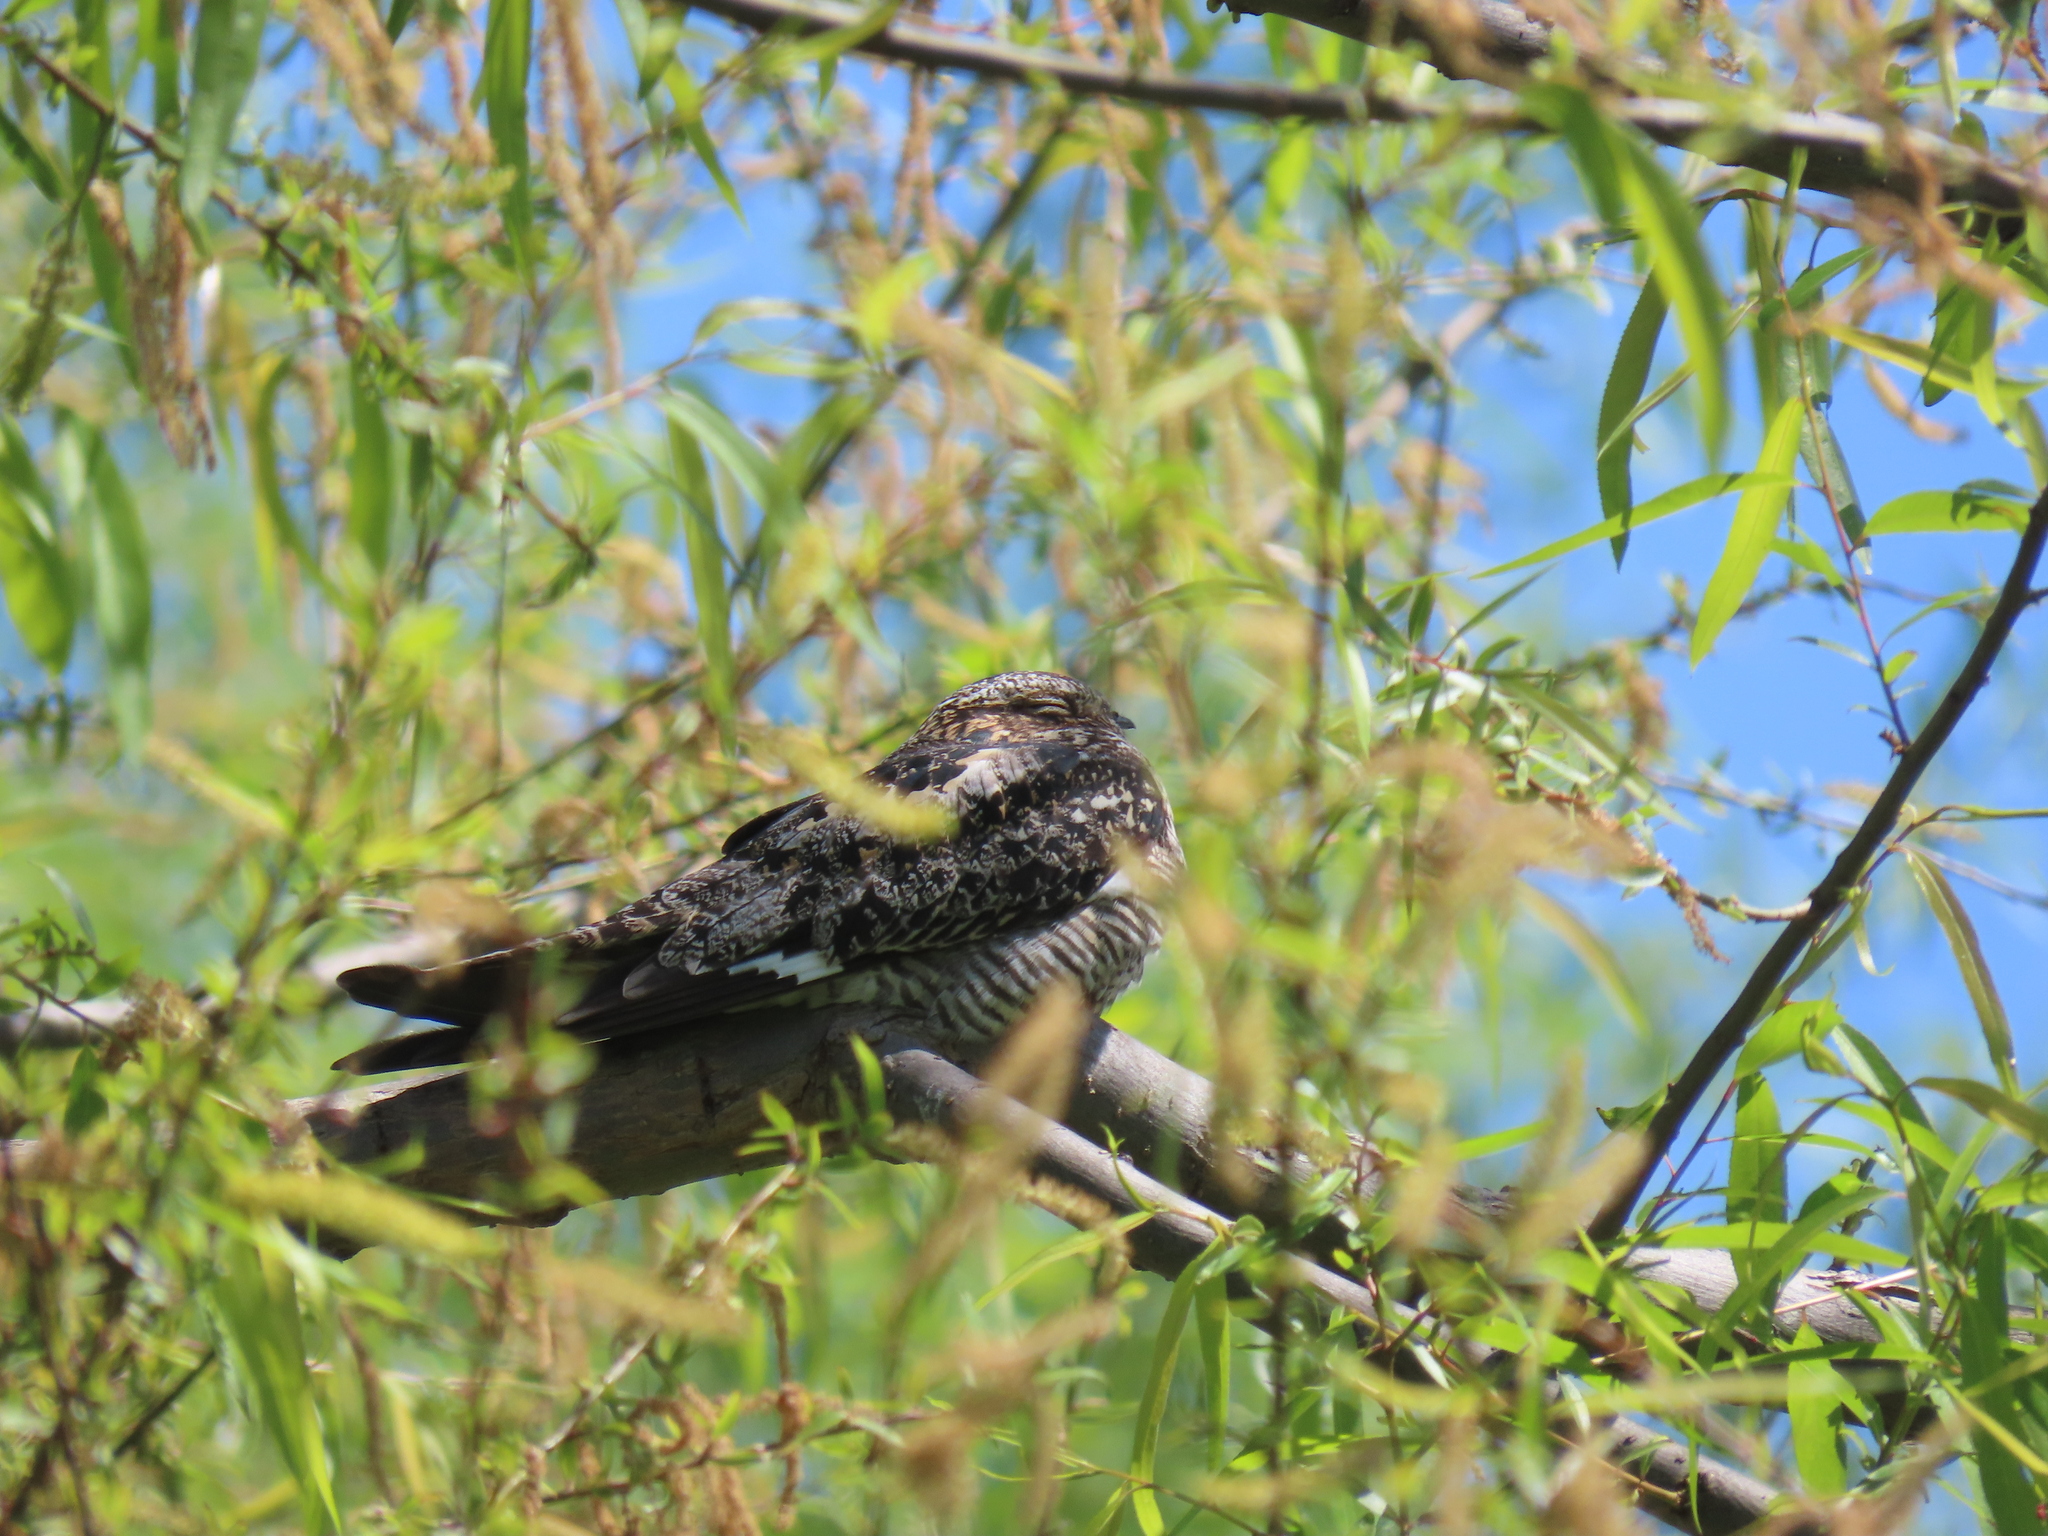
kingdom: Animalia
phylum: Chordata
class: Aves
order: Caprimulgiformes
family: Caprimulgidae
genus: Chordeiles
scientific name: Chordeiles minor
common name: Common nighthawk
